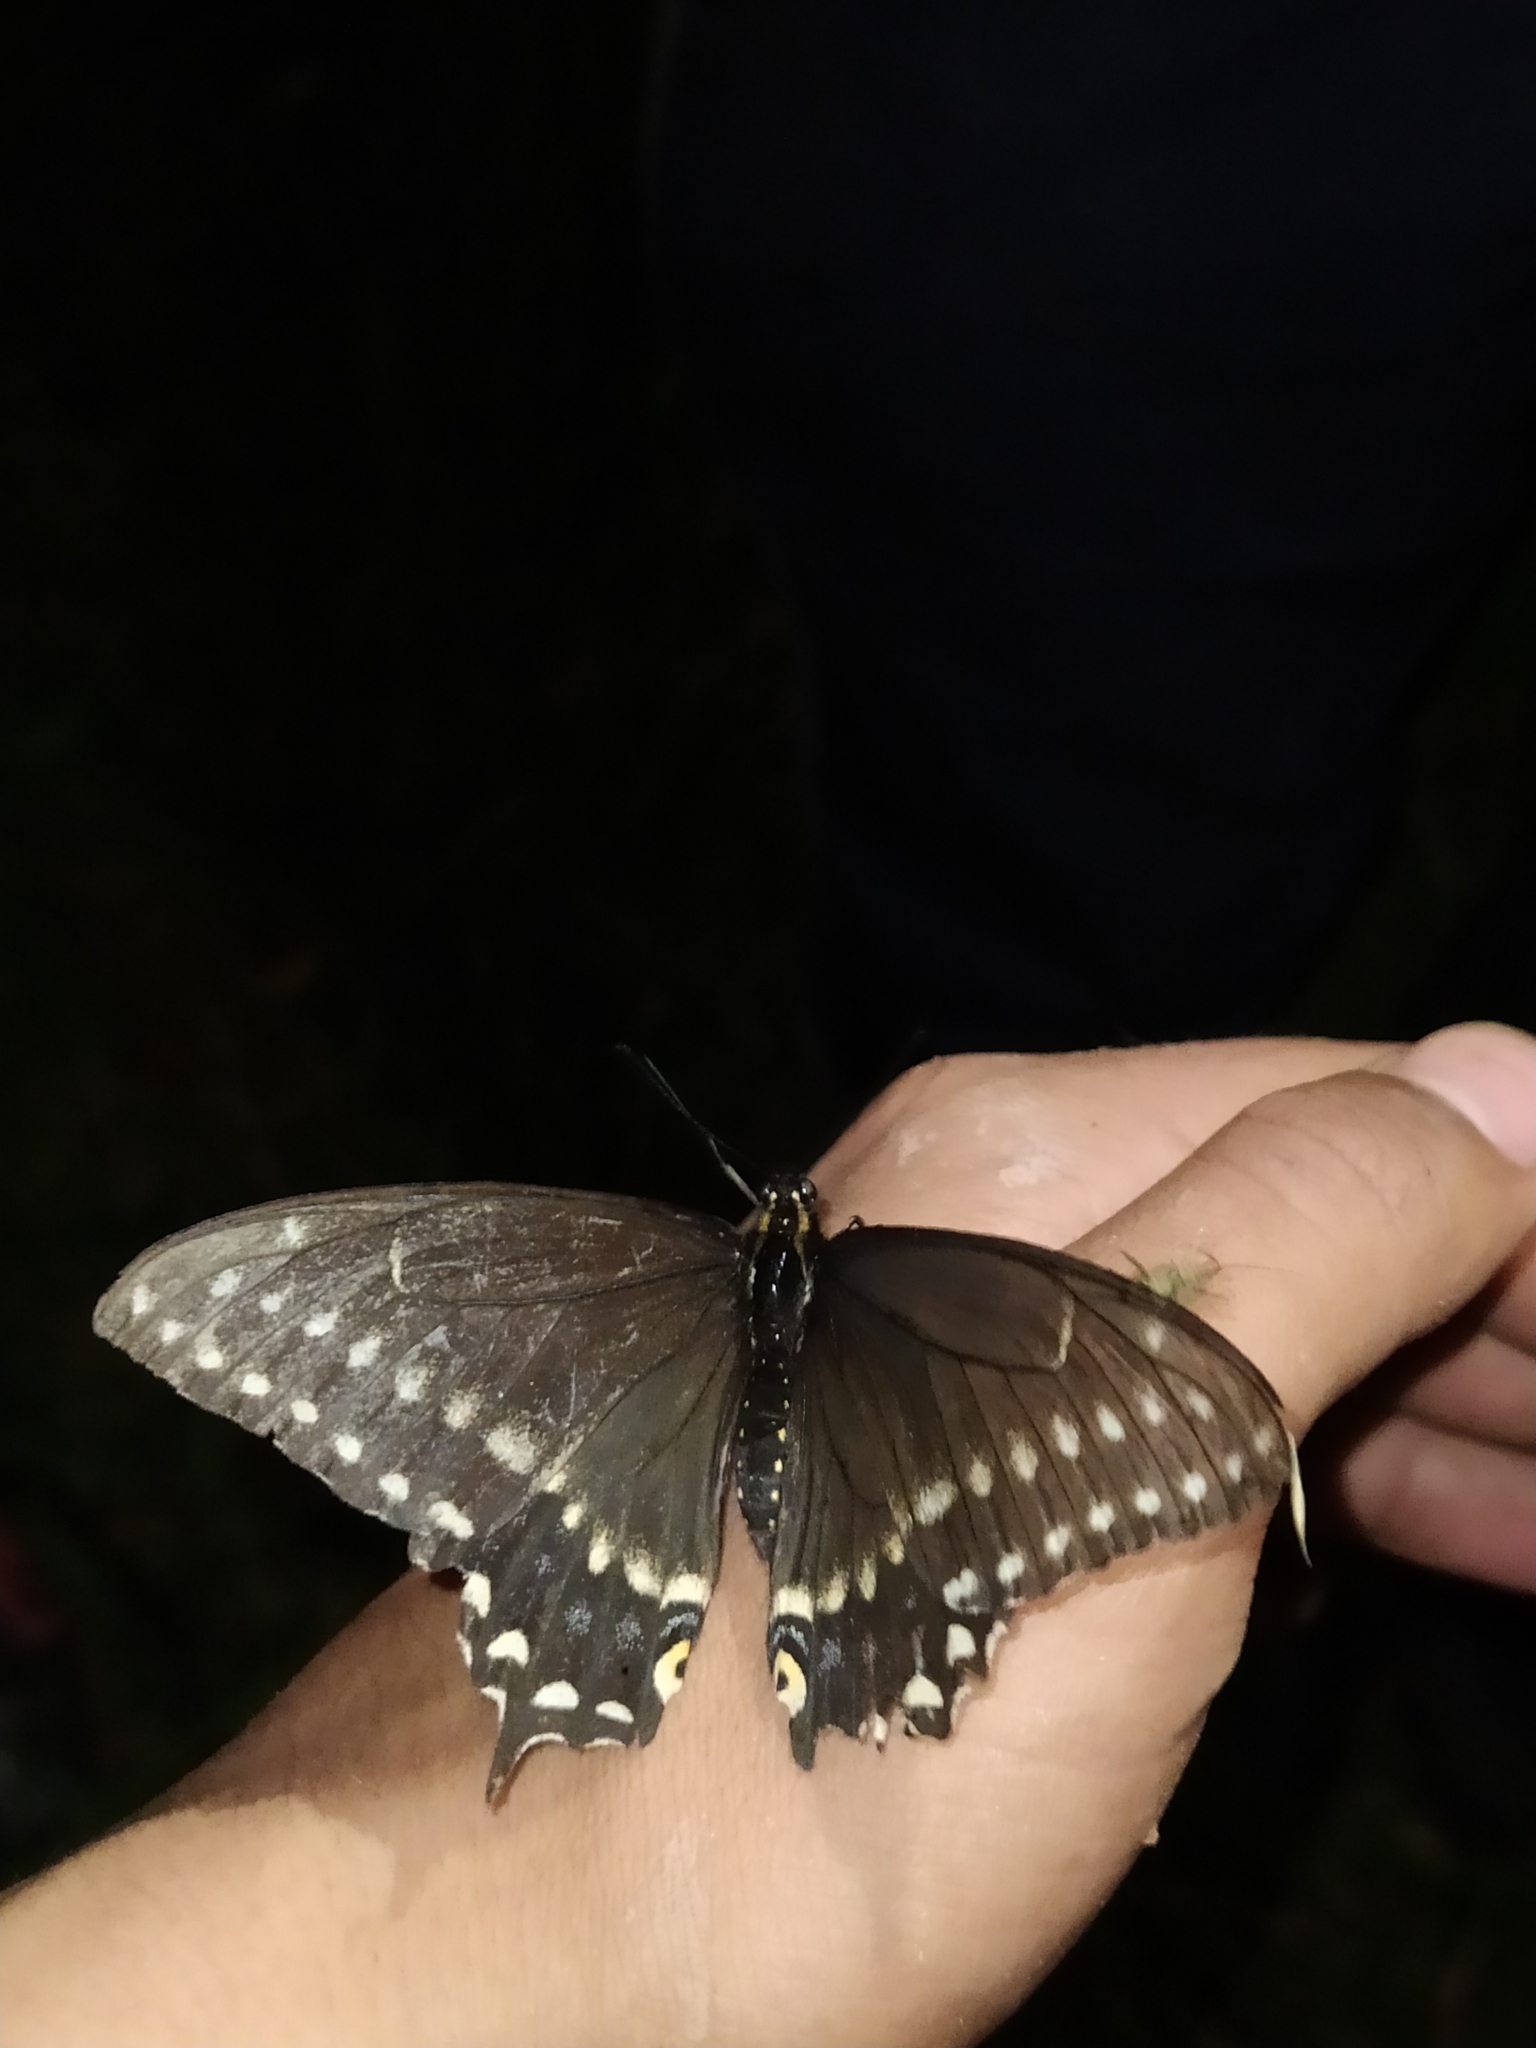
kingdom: Animalia
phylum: Arthropoda
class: Insecta
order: Lepidoptera
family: Papilionidae
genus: Papilio
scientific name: Papilio polyxenes
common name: Black swallowtail
